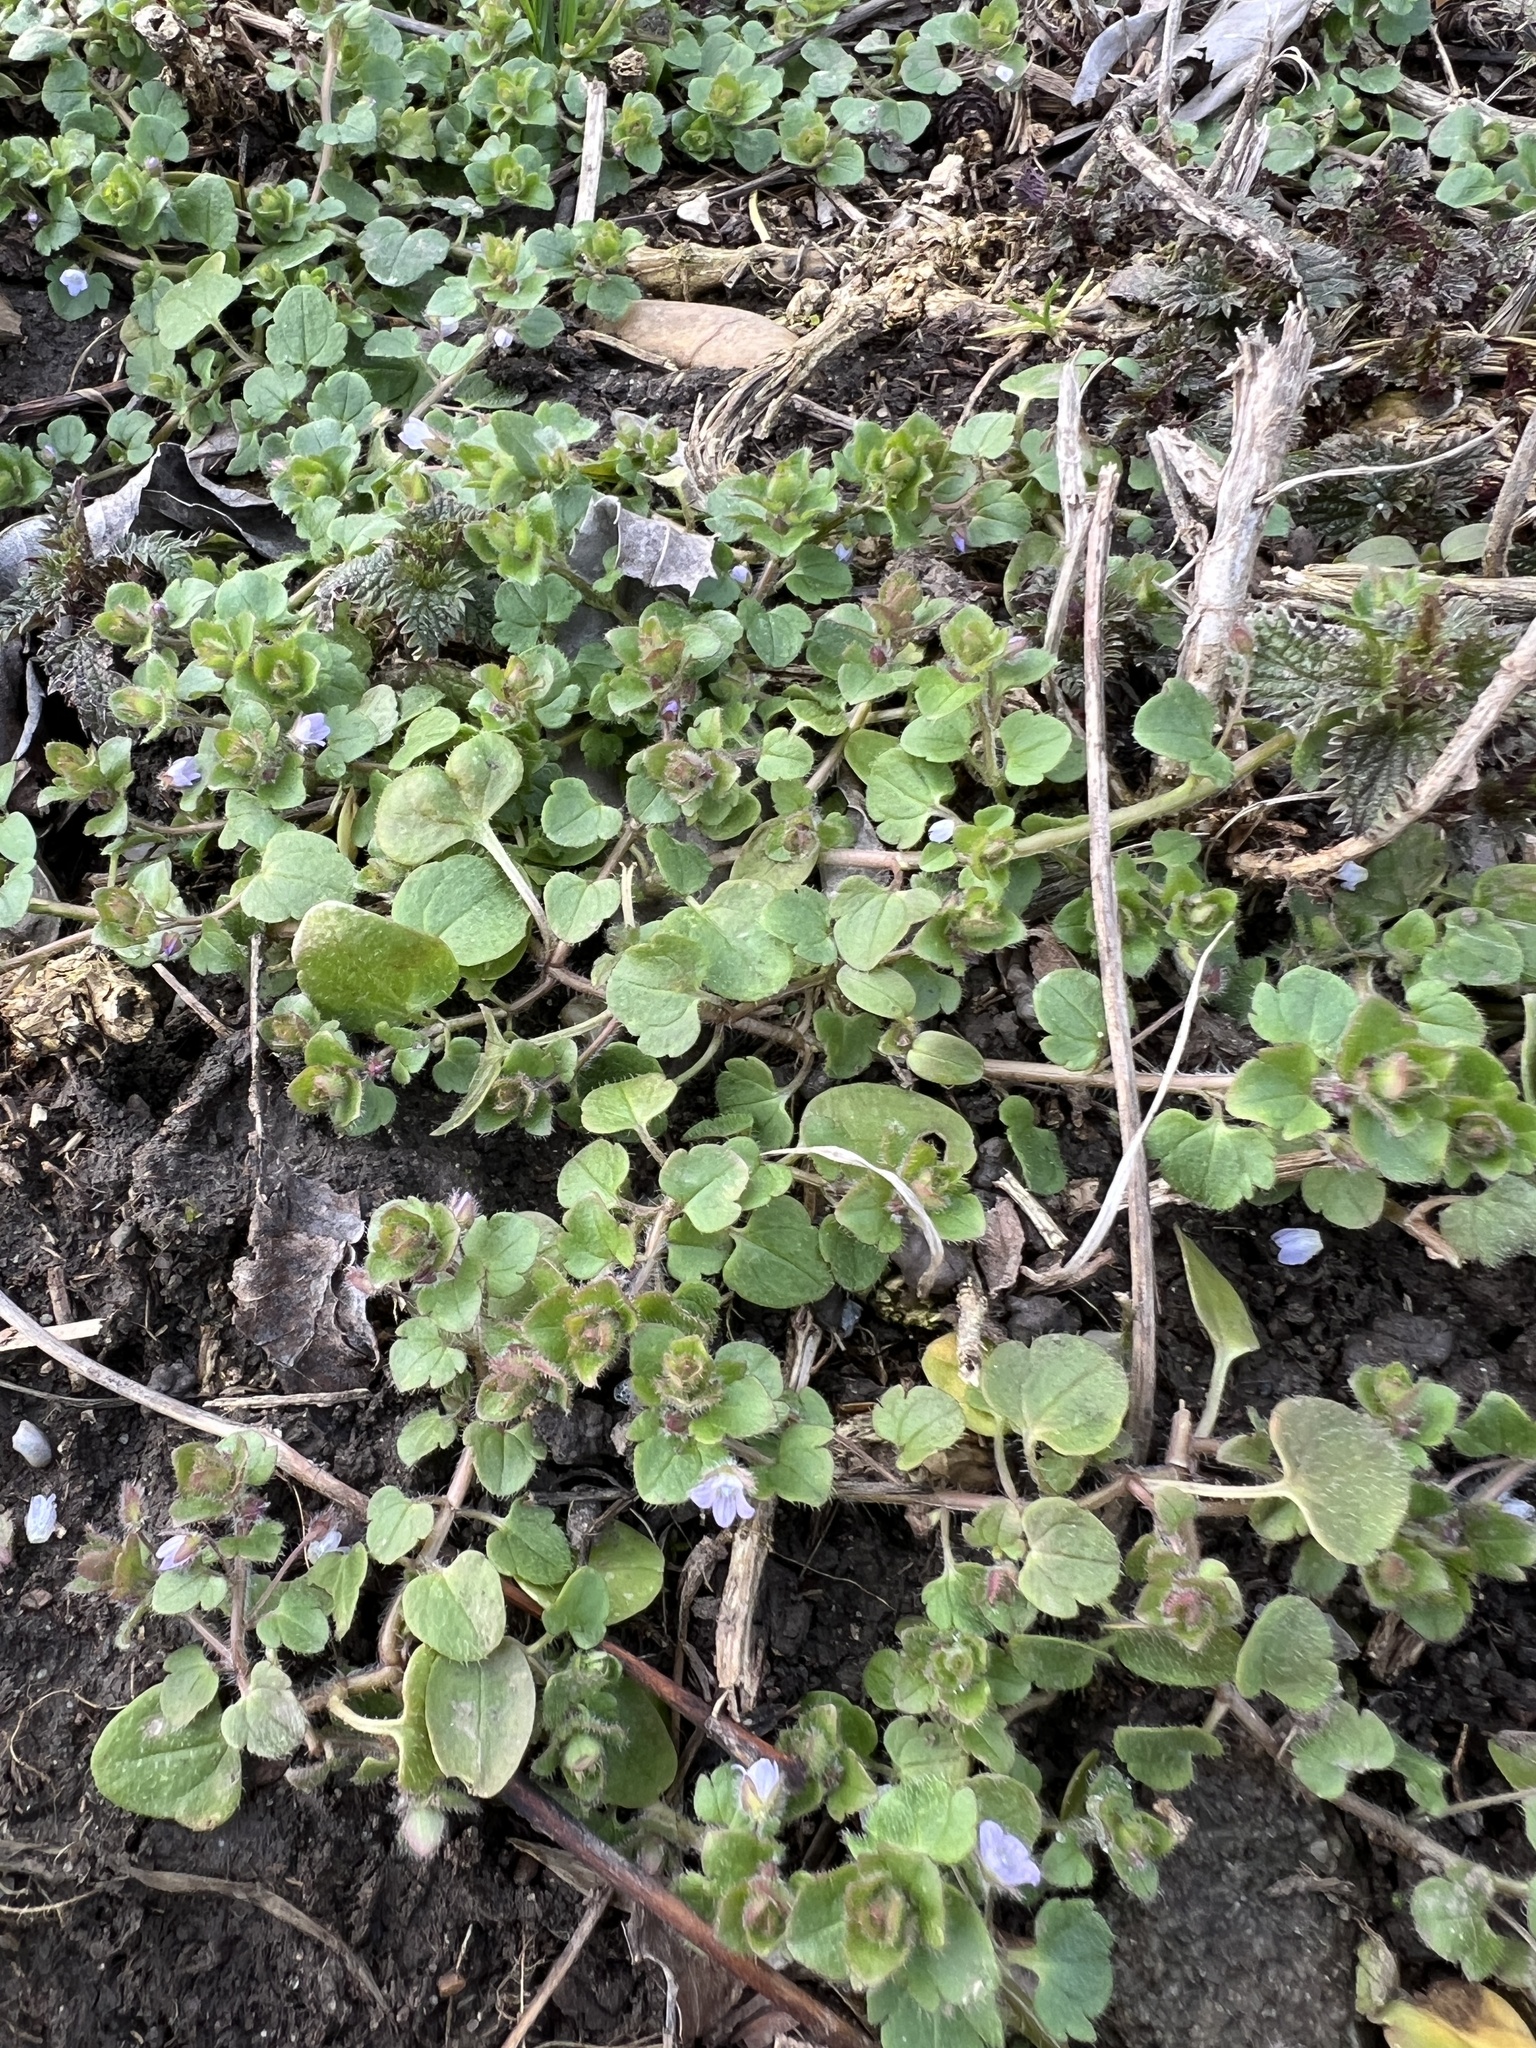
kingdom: Plantae
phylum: Tracheophyta
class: Magnoliopsida
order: Lamiales
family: Plantaginaceae
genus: Veronica
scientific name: Veronica sublobata
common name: False ivy-leaved speedwell
